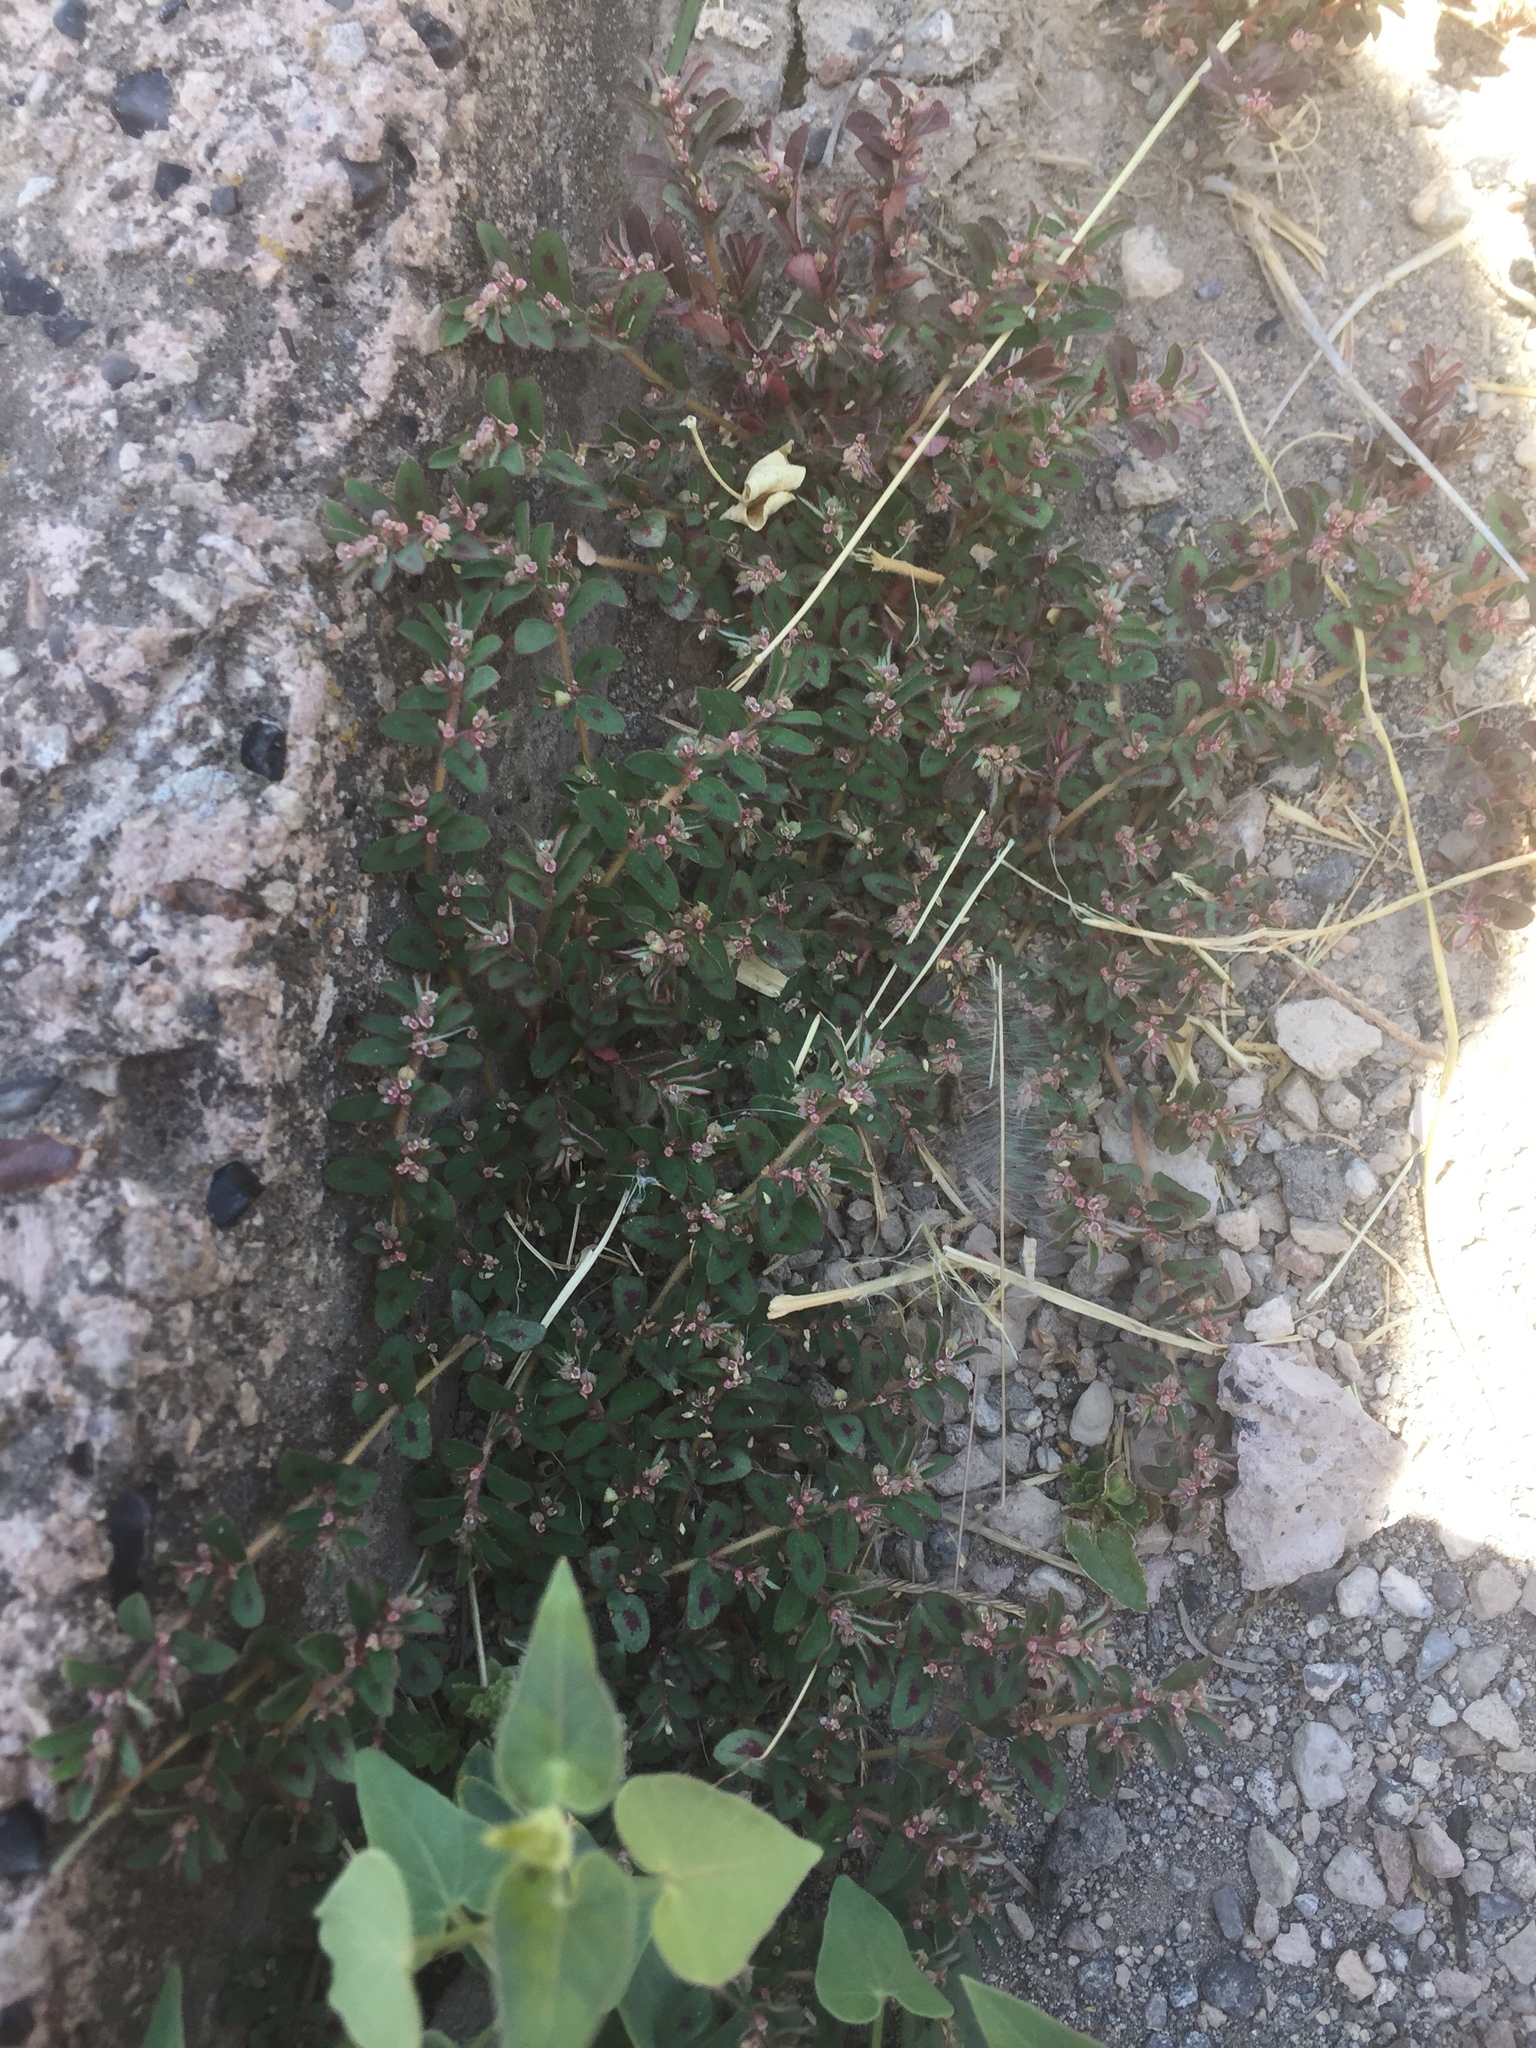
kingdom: Plantae
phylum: Tracheophyta
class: Magnoliopsida
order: Malpighiales
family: Euphorbiaceae
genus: Euphorbia
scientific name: Euphorbia maculata
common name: Spotted spurge
